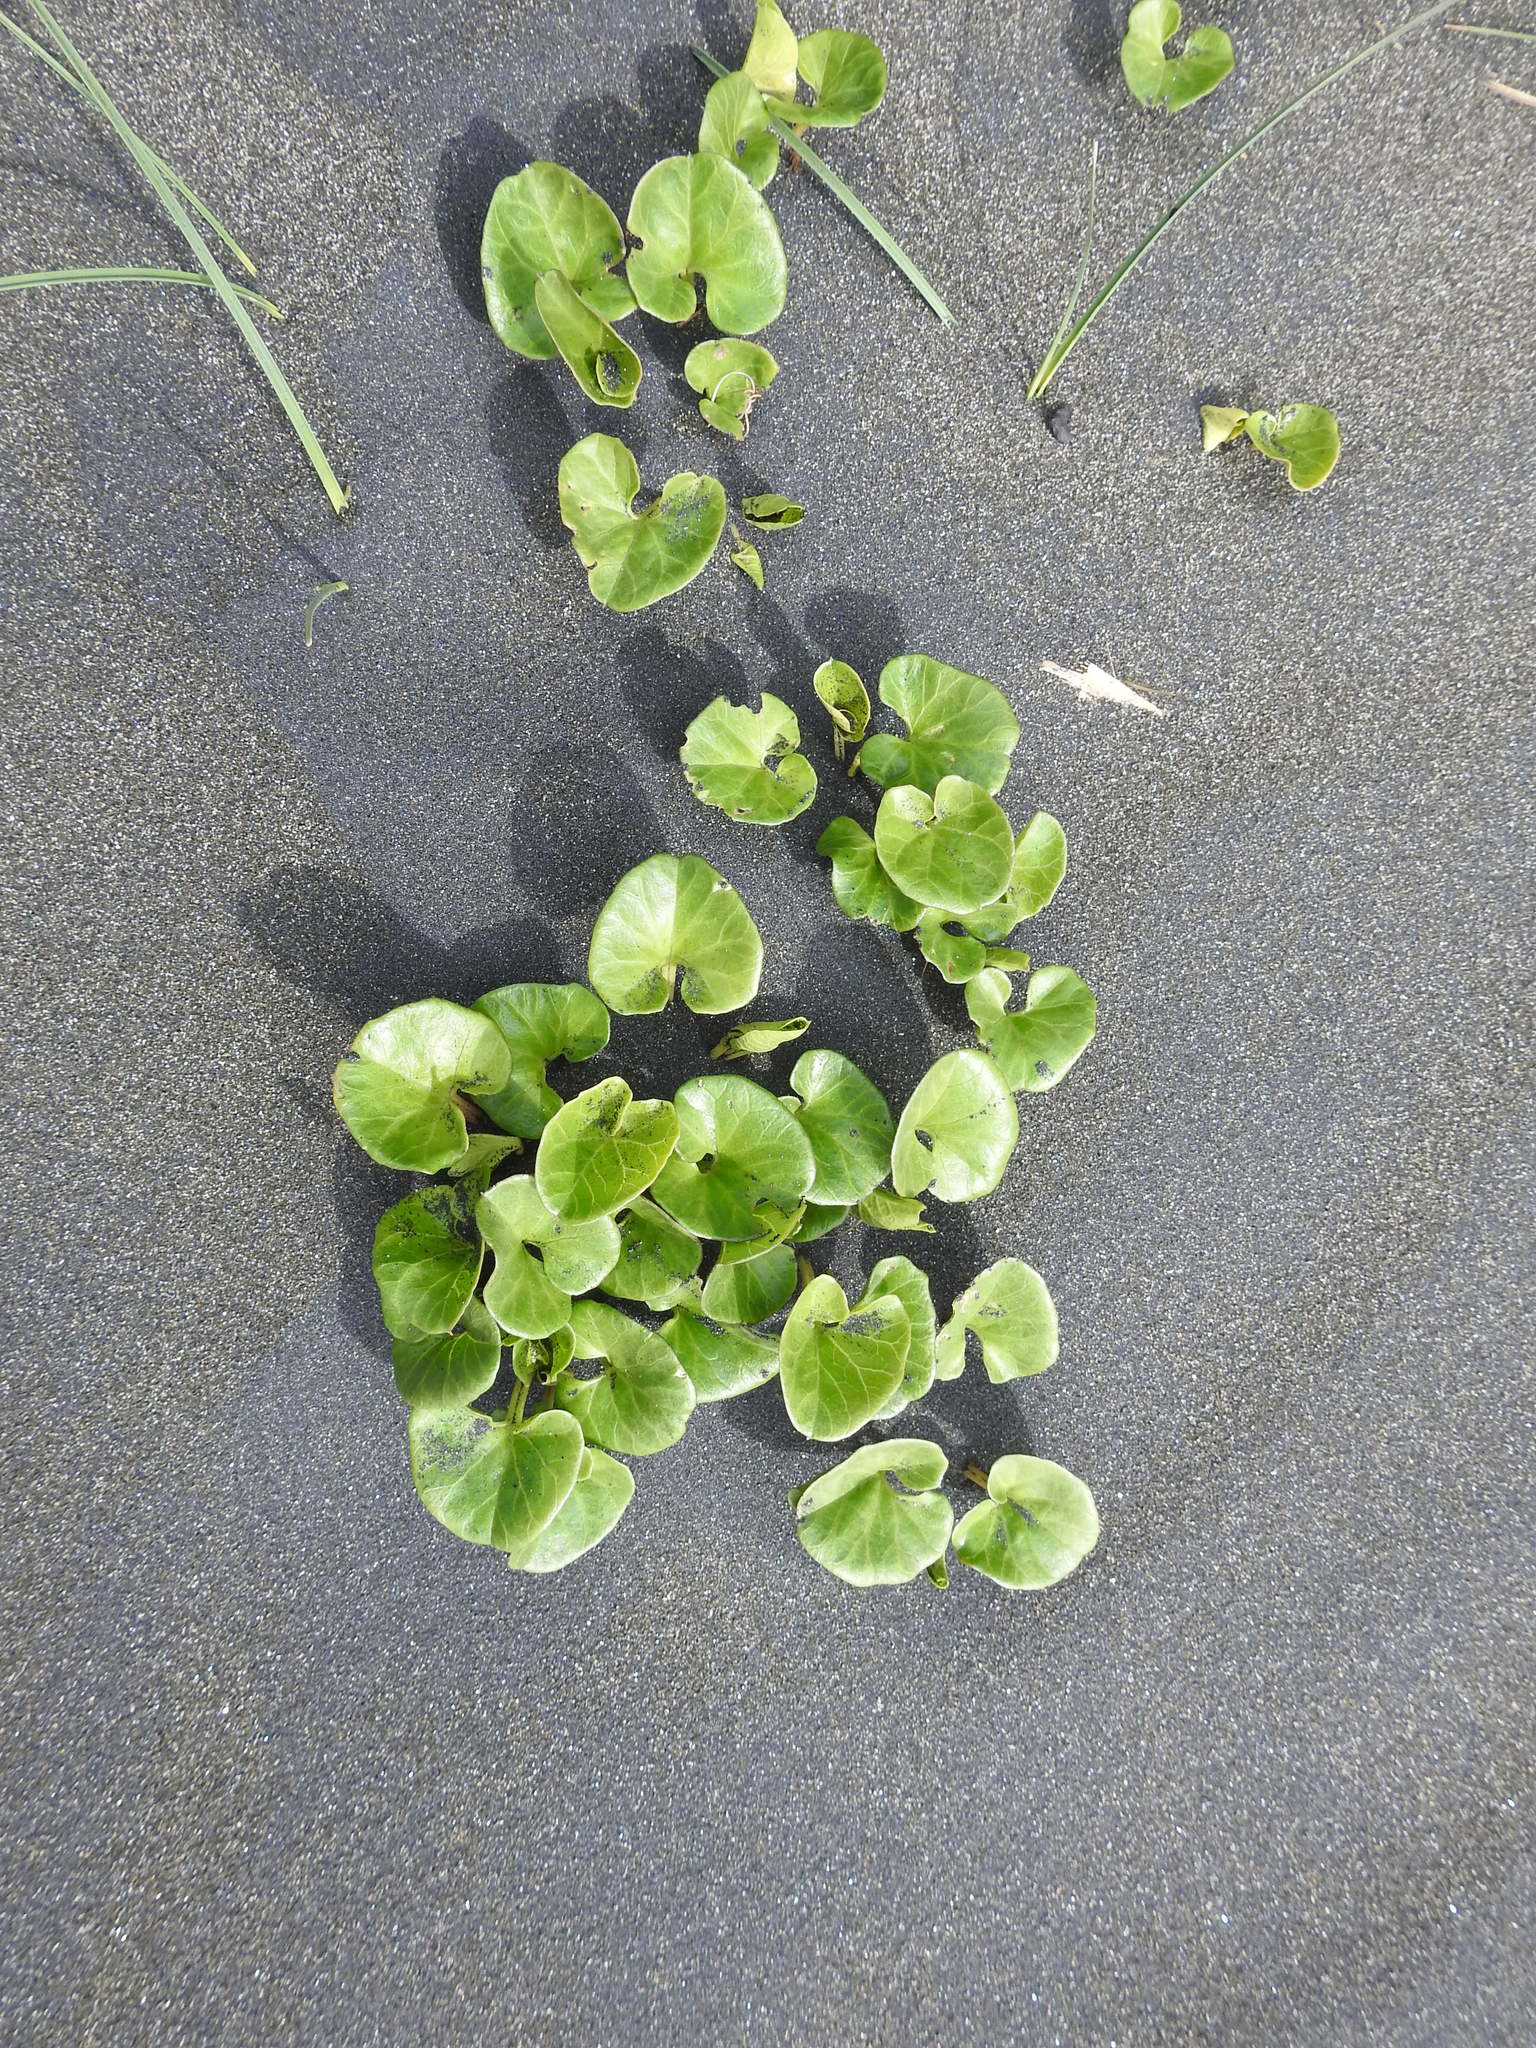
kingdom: Plantae
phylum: Tracheophyta
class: Magnoliopsida
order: Solanales
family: Convolvulaceae
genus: Calystegia
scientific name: Calystegia soldanella
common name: Sea bindweed
